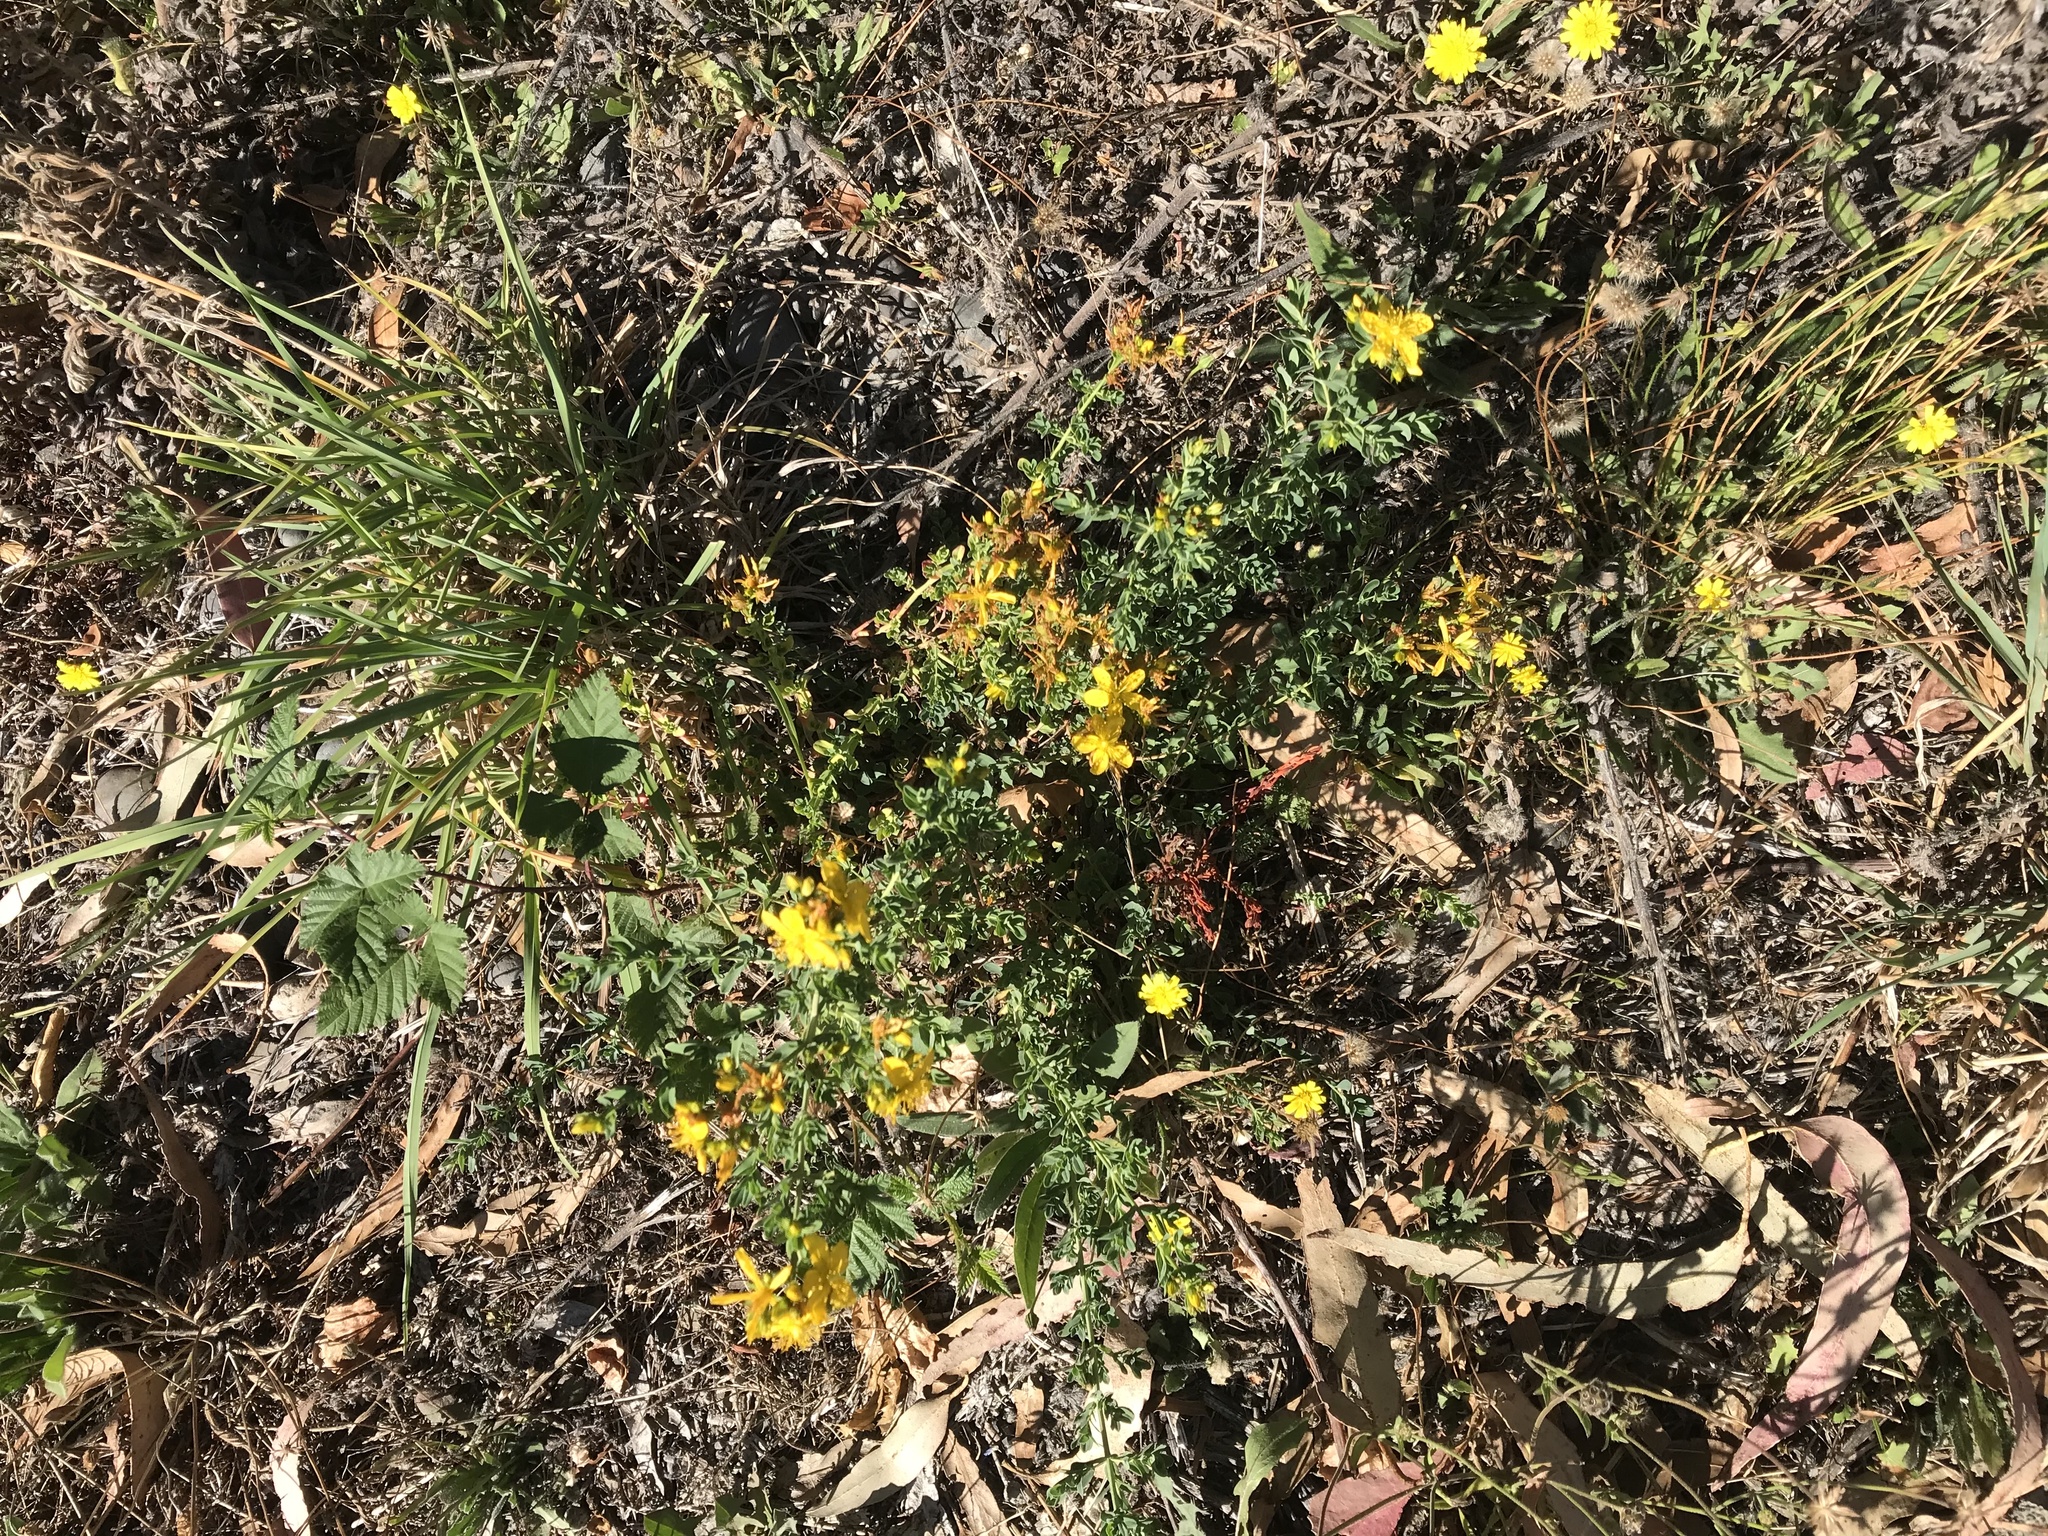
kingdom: Plantae
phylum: Tracheophyta
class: Magnoliopsida
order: Malpighiales
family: Hypericaceae
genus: Hypericum
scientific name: Hypericum perforatum
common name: Common st. johnswort
